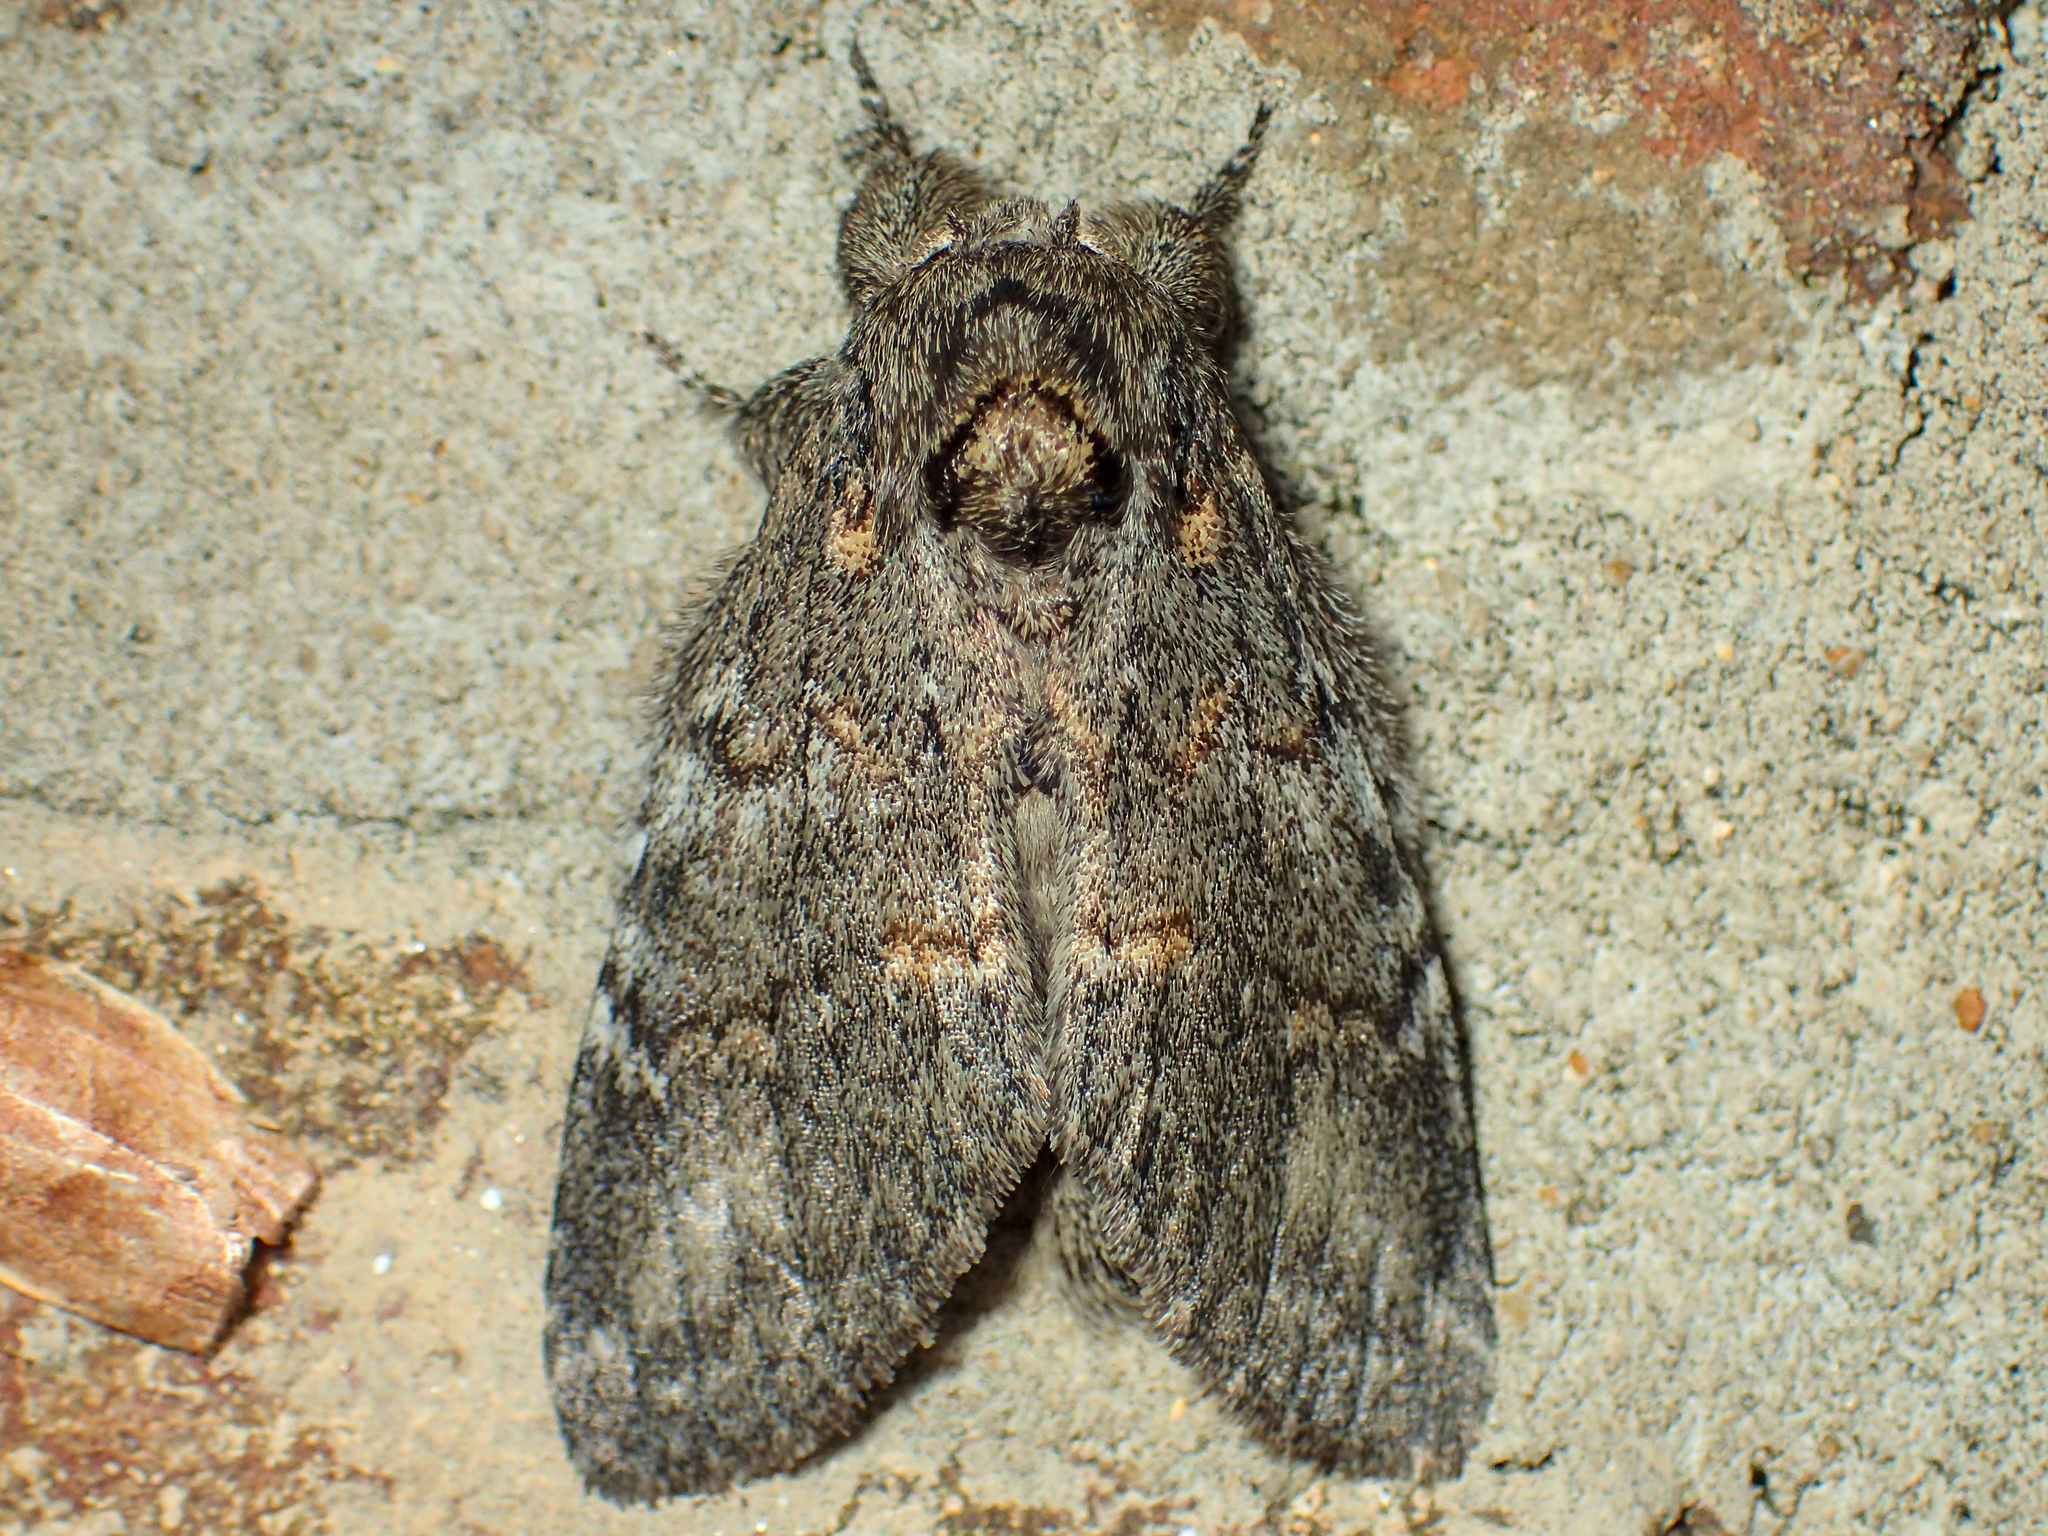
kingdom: Animalia
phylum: Arthropoda
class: Insecta
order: Lepidoptera
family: Notodontidae
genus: Peridea
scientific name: Peridea angulosa
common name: Angulose prominent
